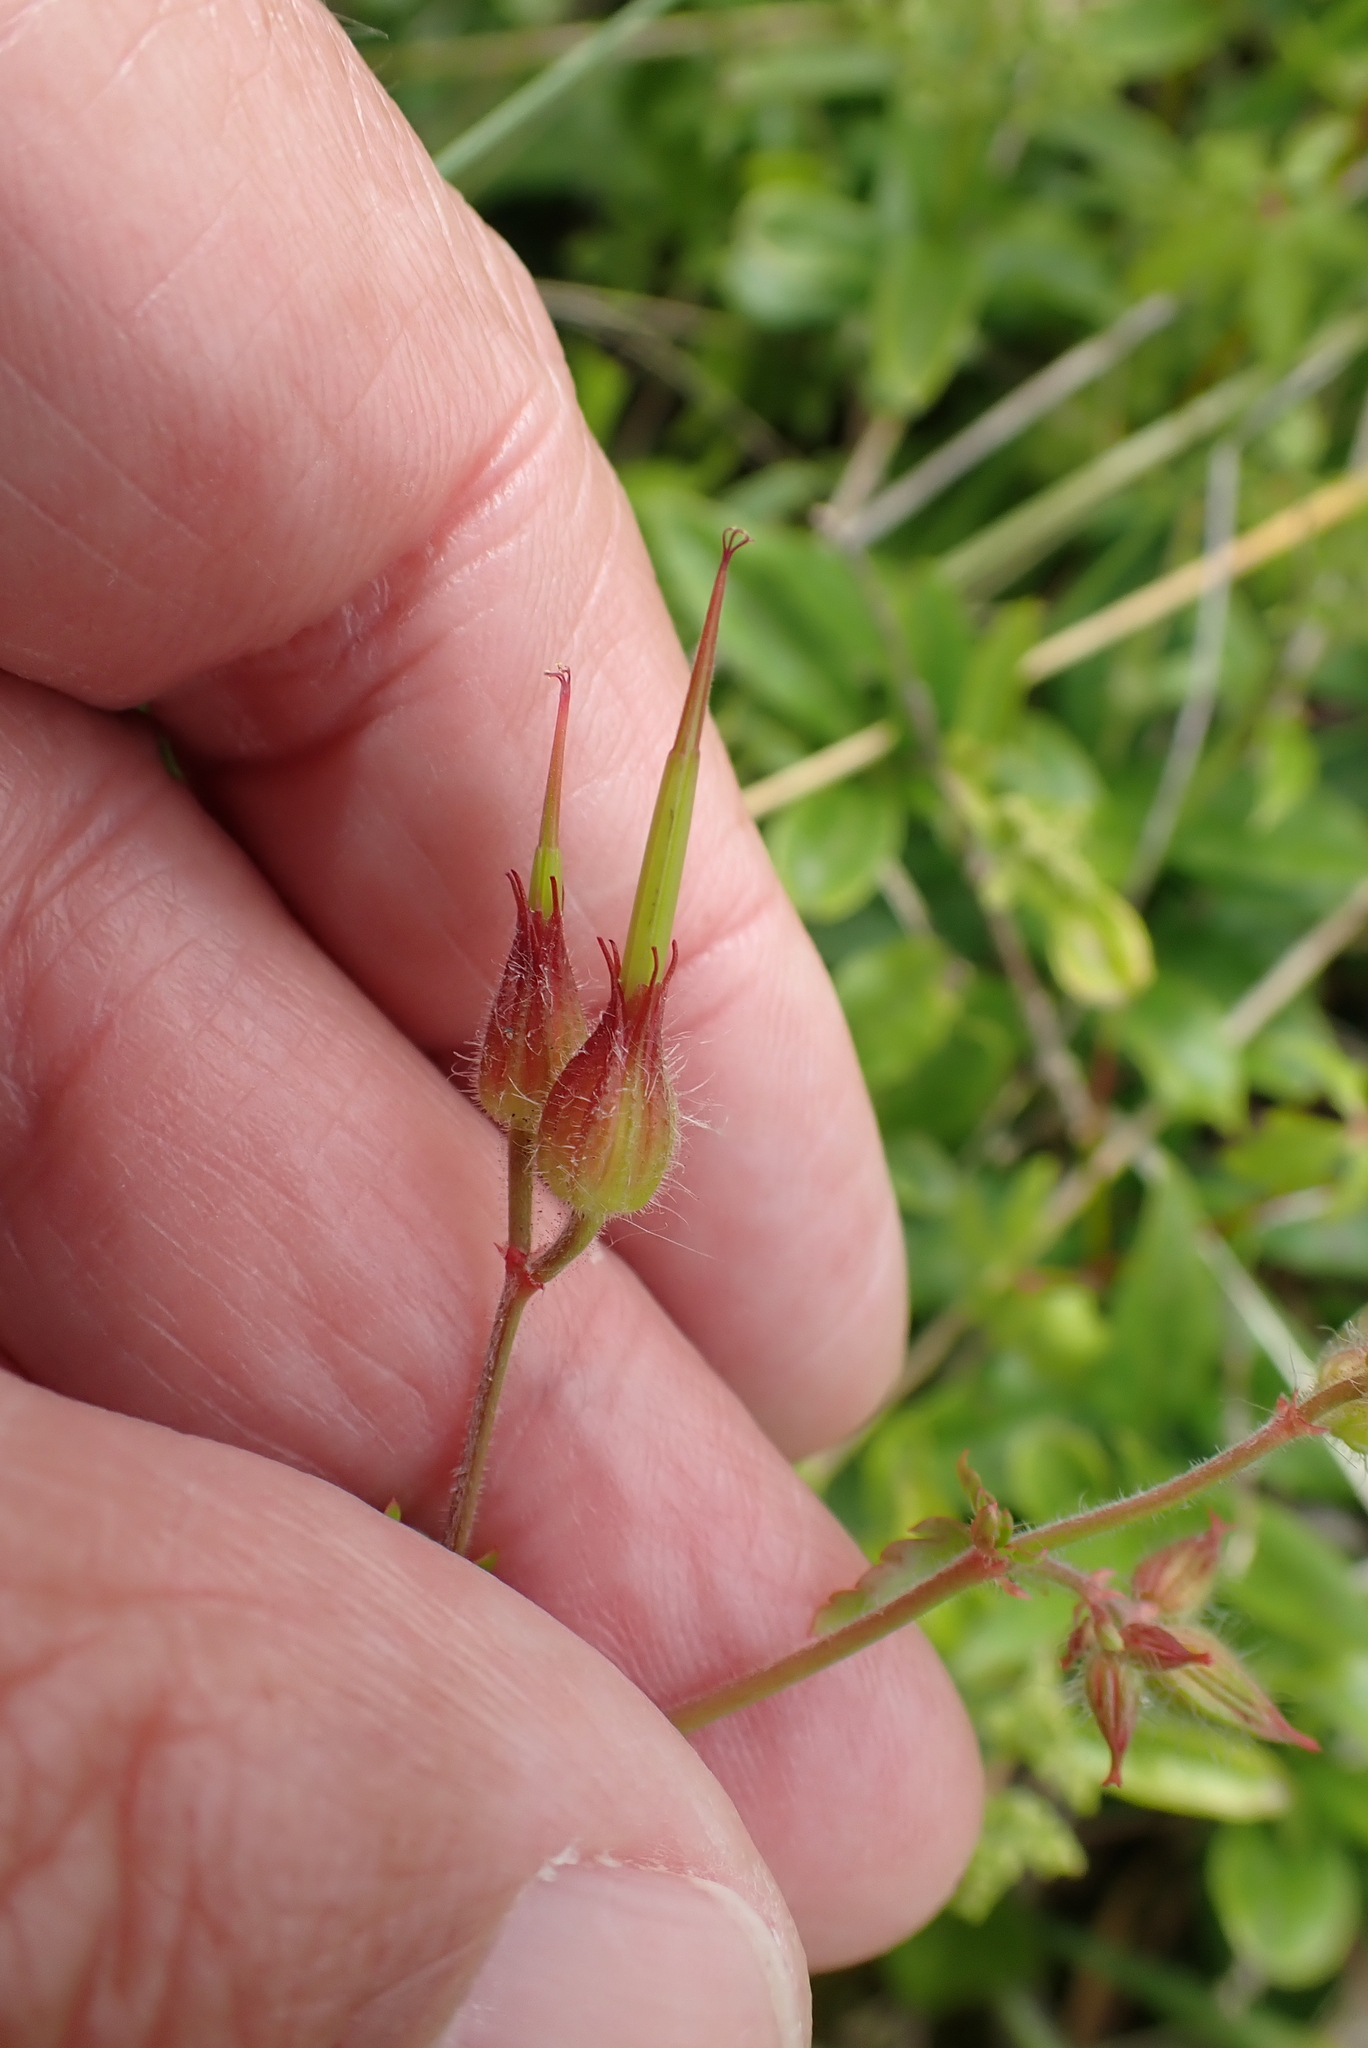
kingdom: Plantae
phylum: Tracheophyta
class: Magnoliopsida
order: Geraniales
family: Geraniaceae
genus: Geranium
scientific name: Geranium purpureum
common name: Little-robin
